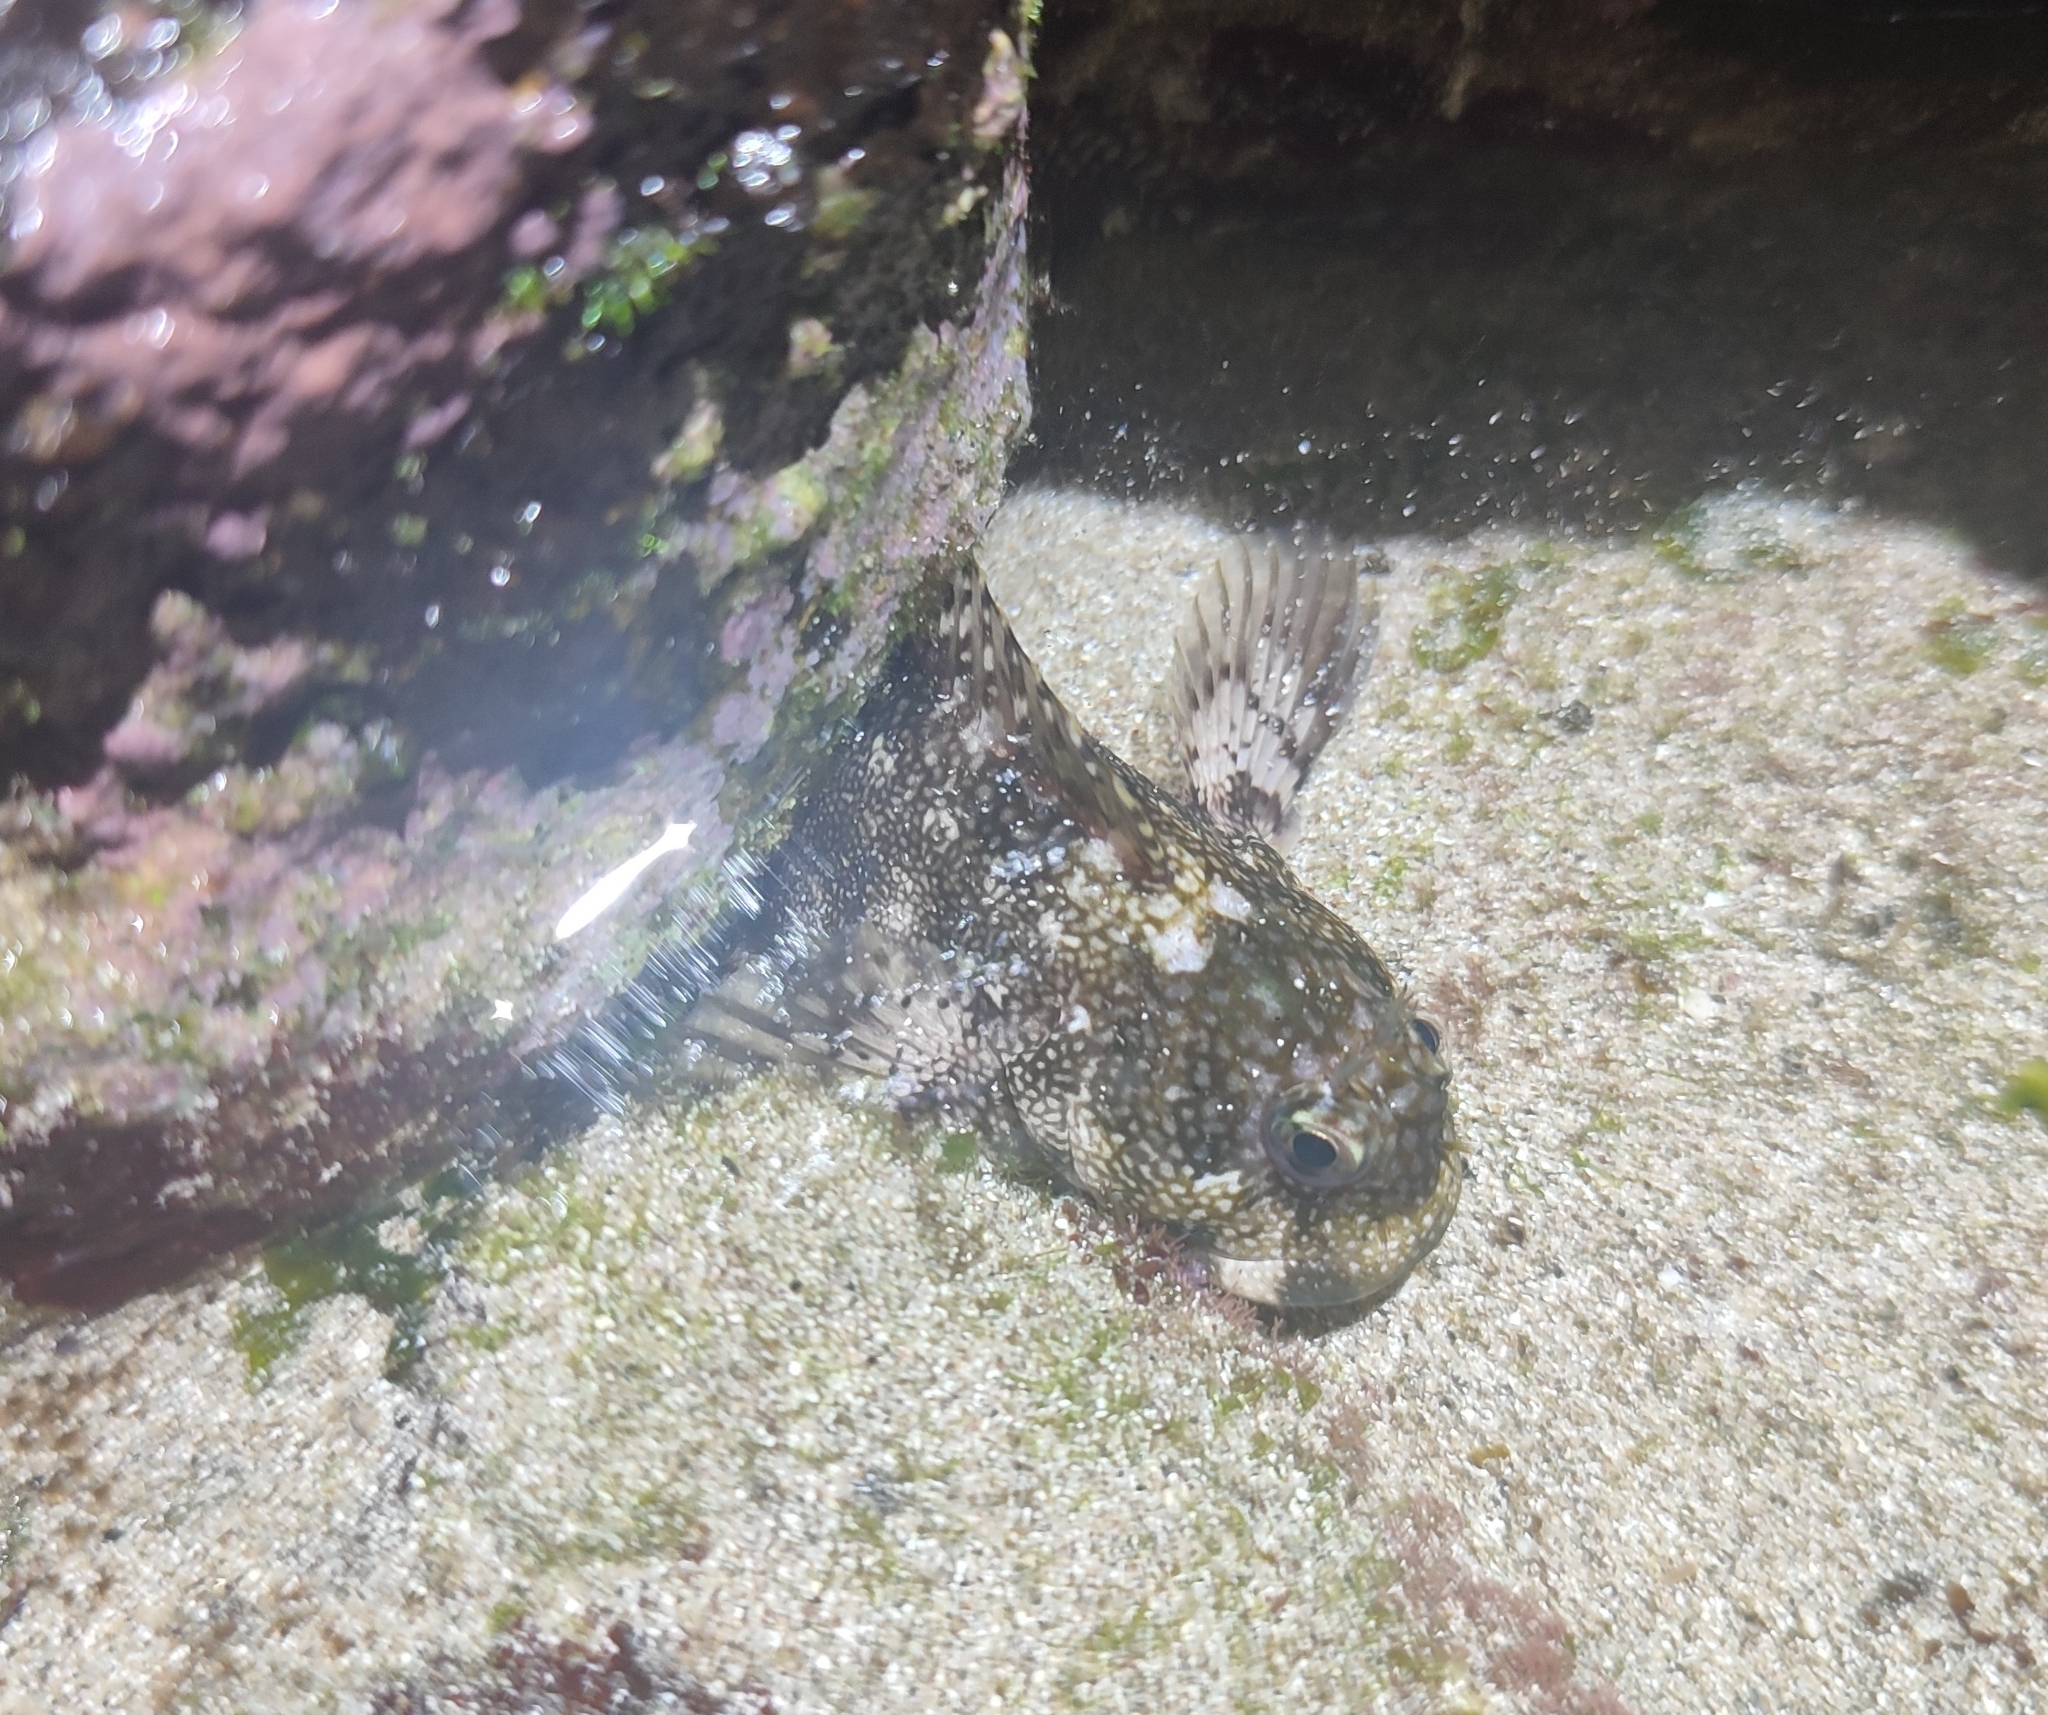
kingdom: Animalia
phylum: Chordata
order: Perciformes
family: Blenniidae
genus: Entomacrodus
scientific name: Entomacrodus vermiculatus
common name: Vermiculated blenny
